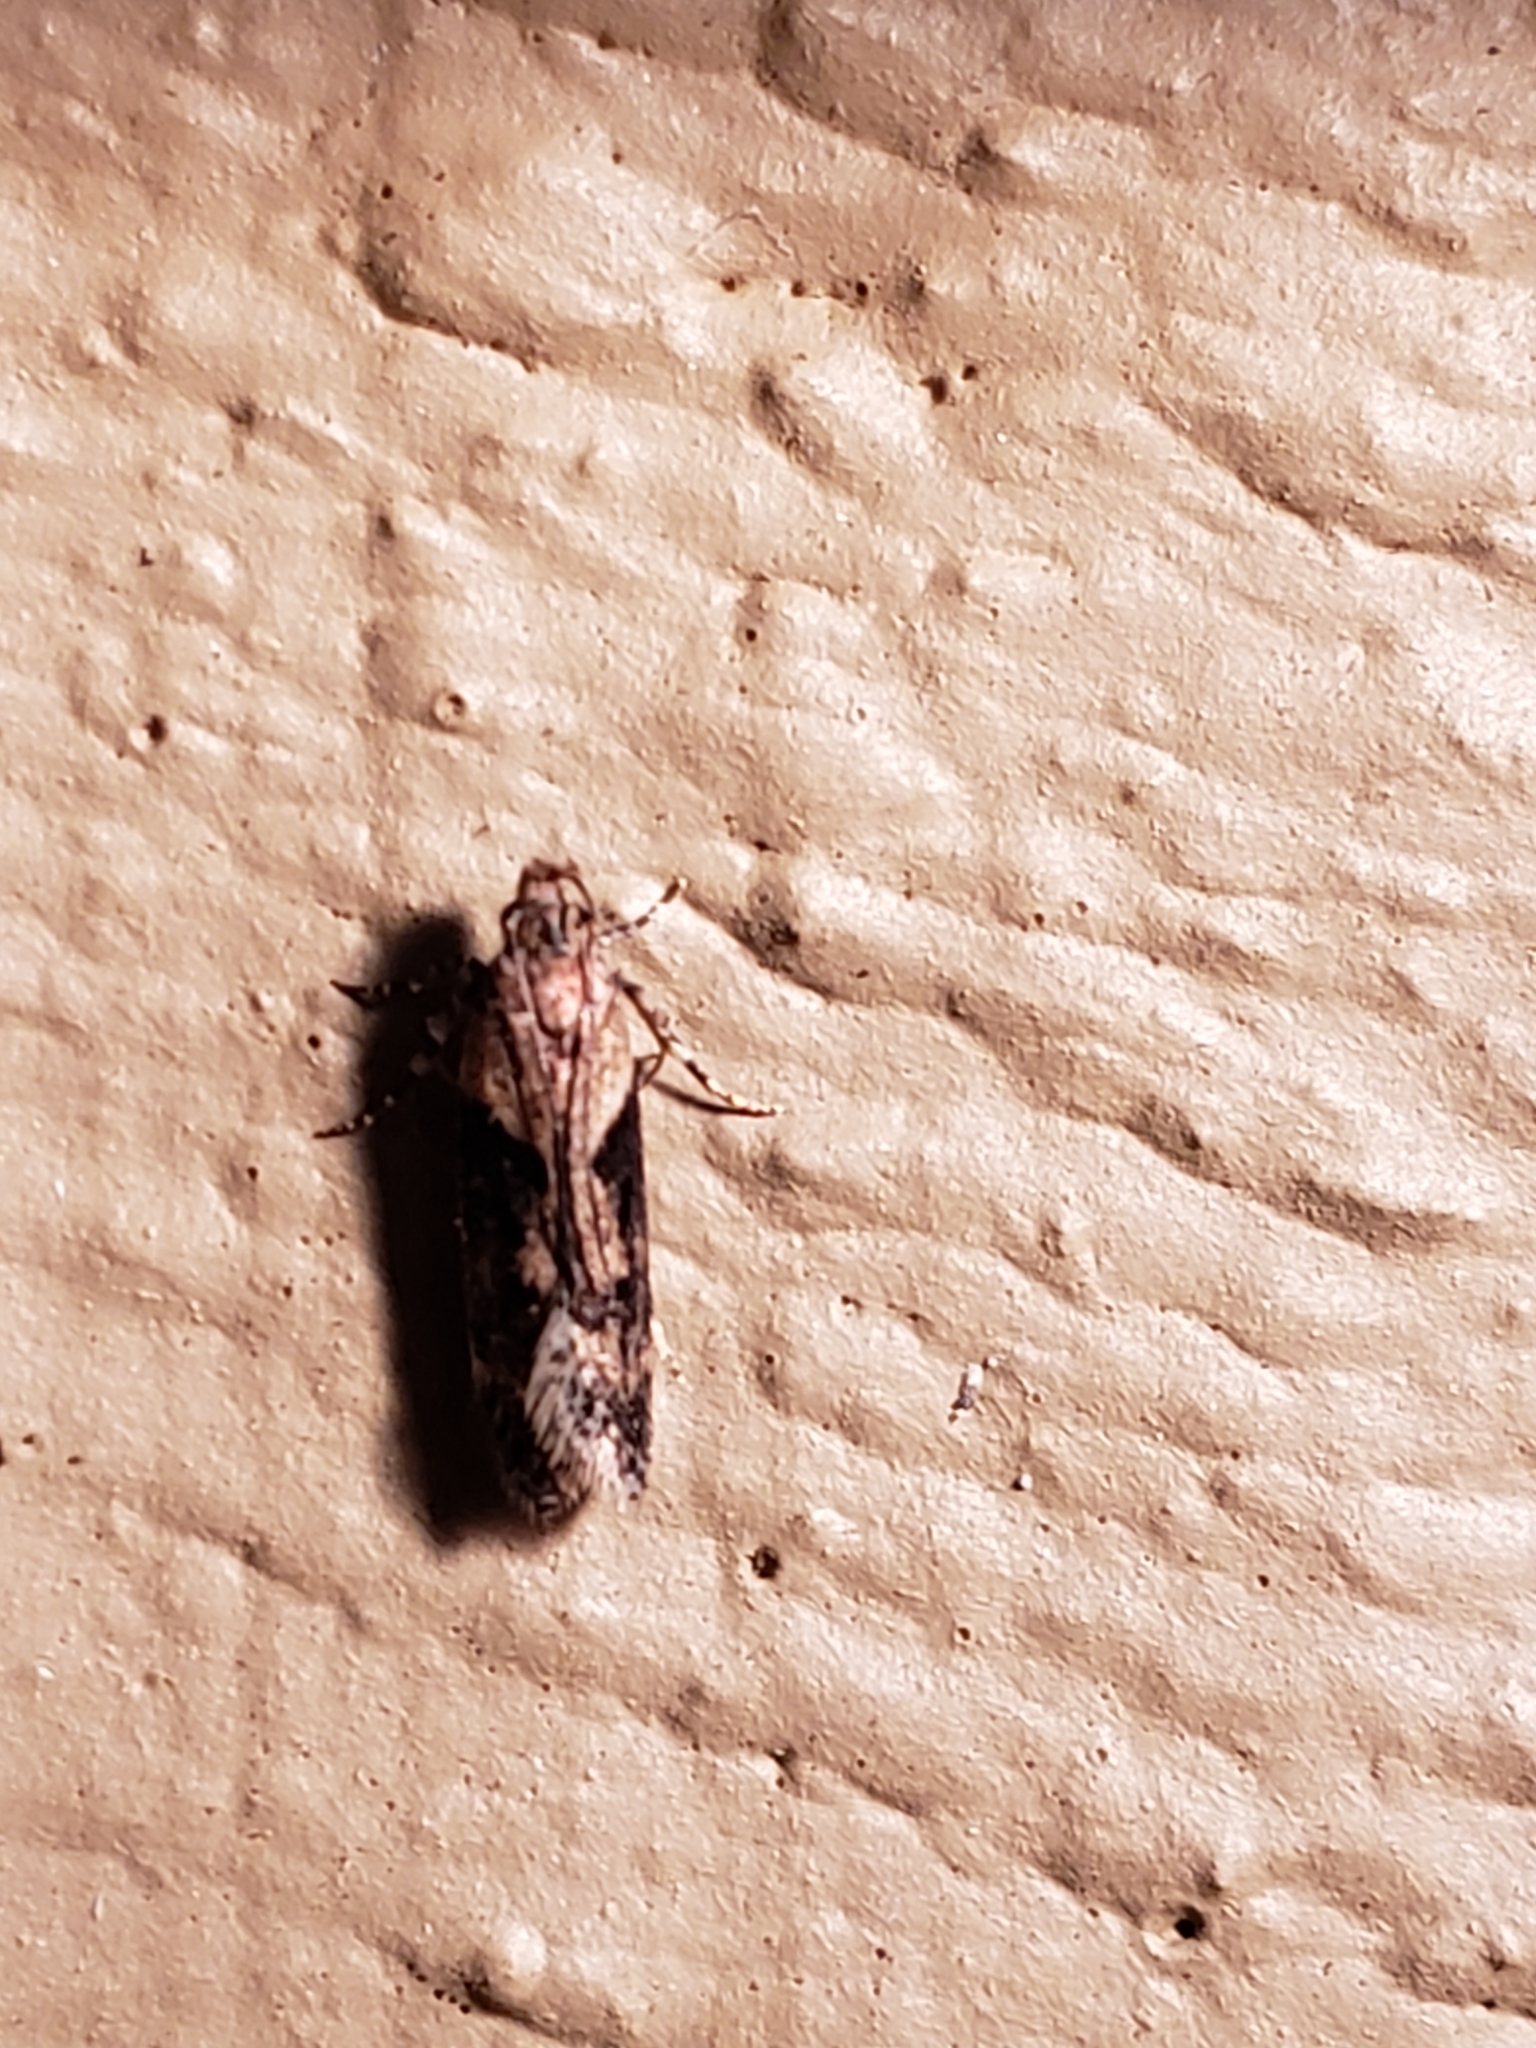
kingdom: Animalia
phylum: Arthropoda
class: Insecta
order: Lepidoptera
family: Gelechiidae
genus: Chionodes
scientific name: Chionodes mediofuscella
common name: Black-smudged chionodes moth
